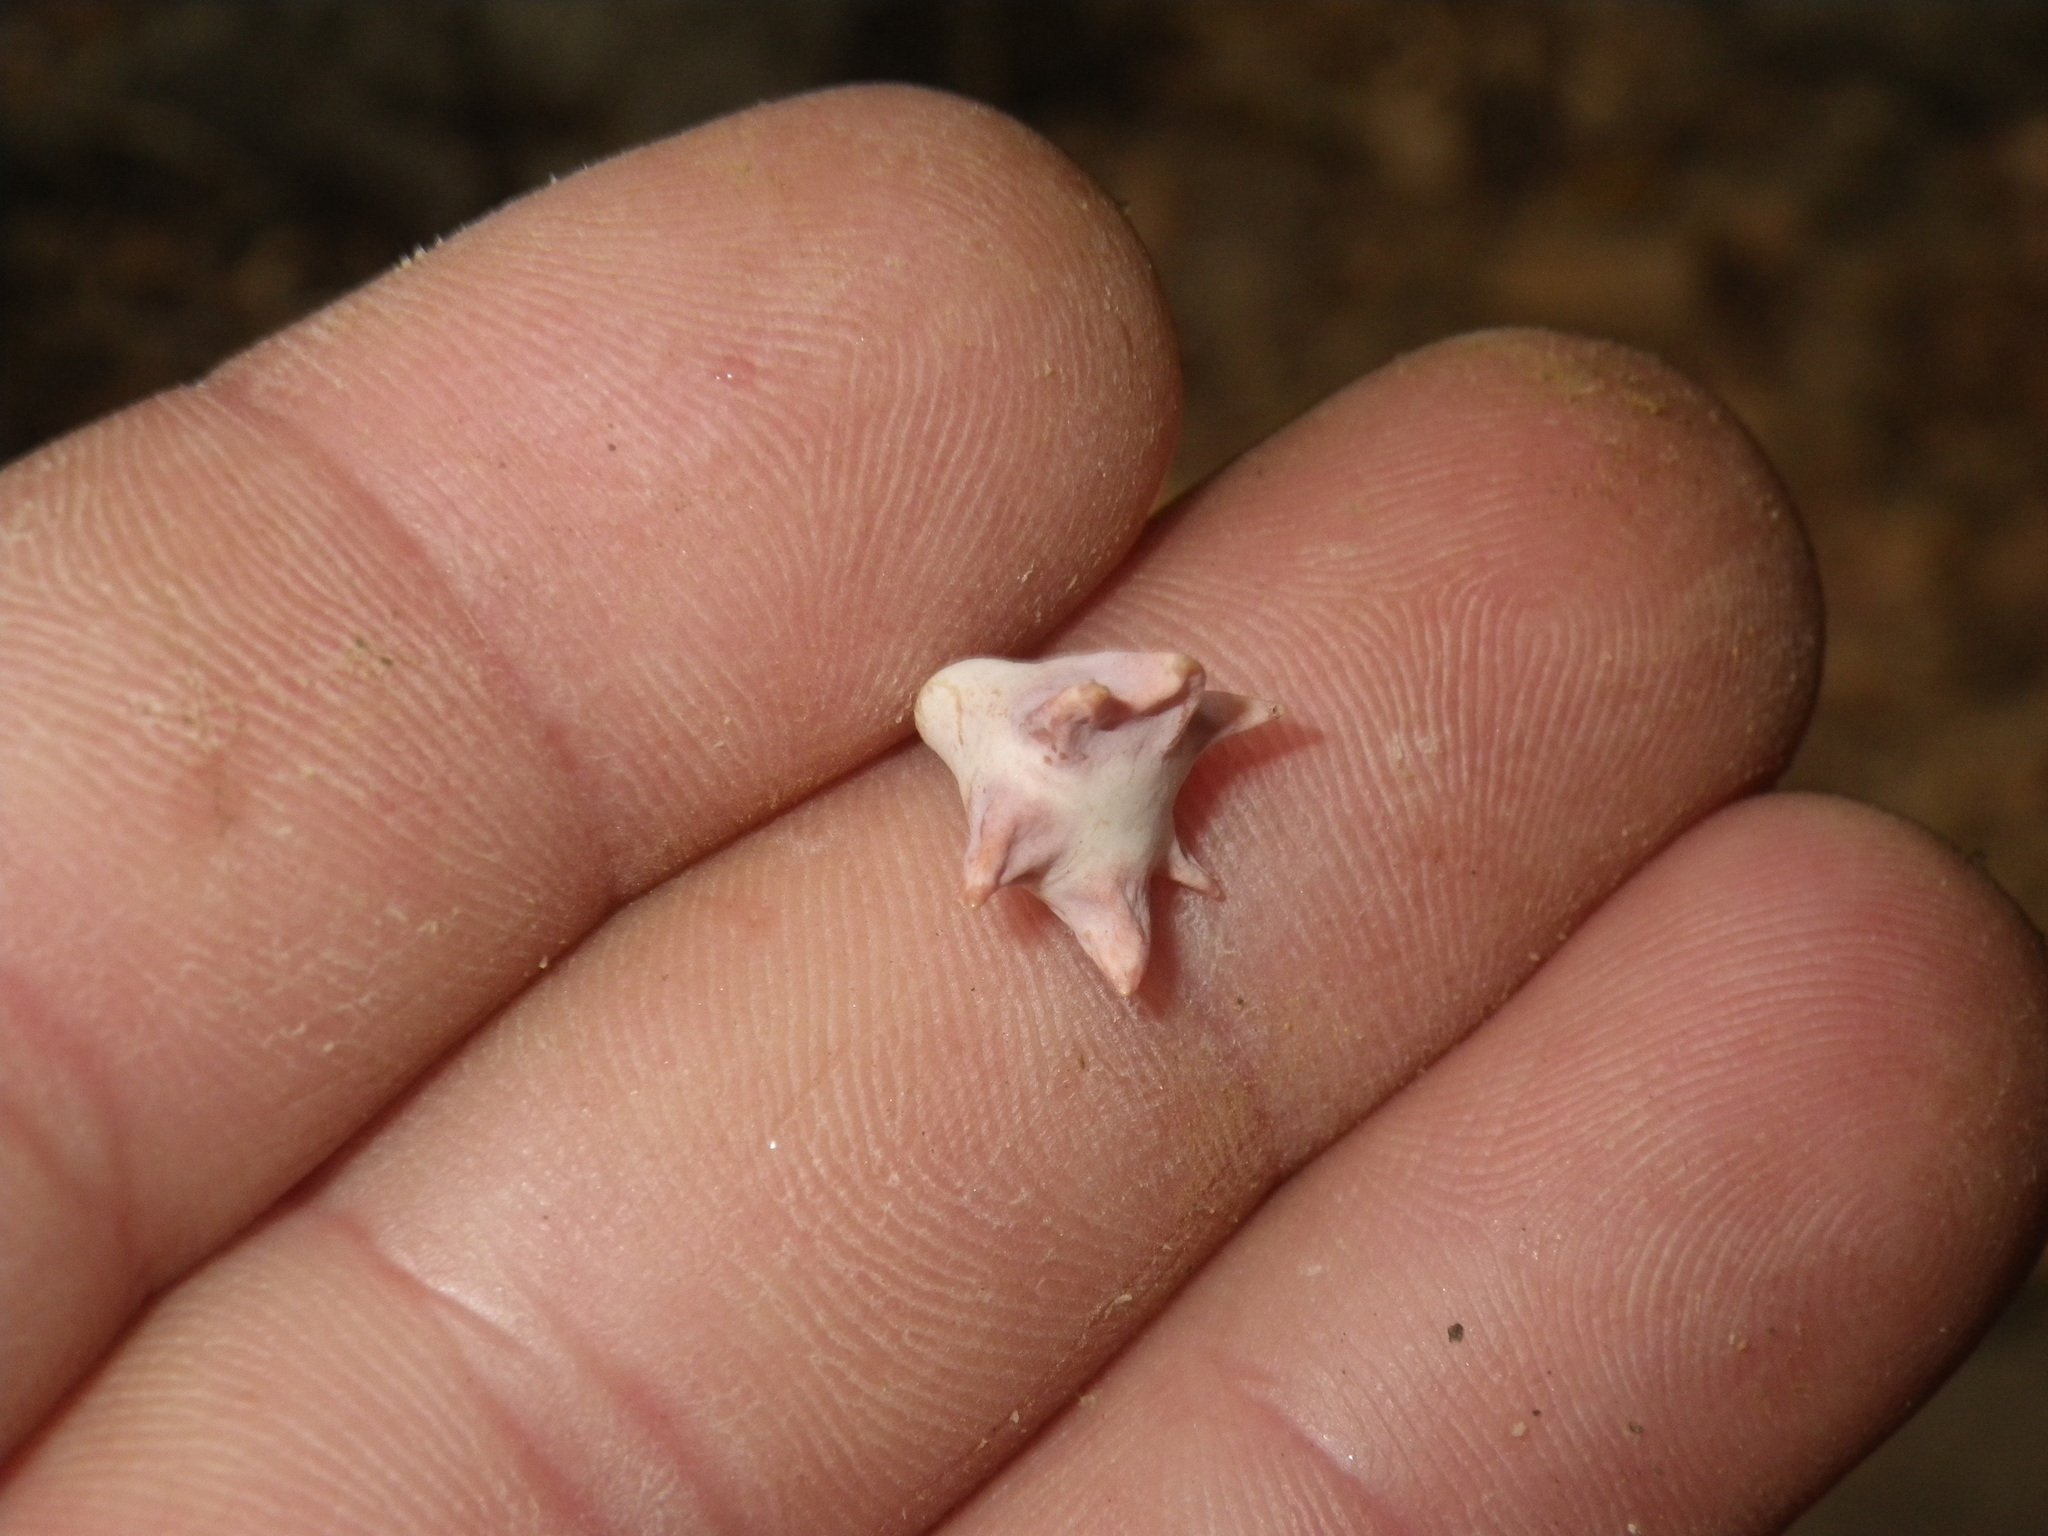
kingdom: Animalia
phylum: Arthropoda
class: Insecta
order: Hymenoptera
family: Cynipidae
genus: Cynips
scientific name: Cynips douglasi
